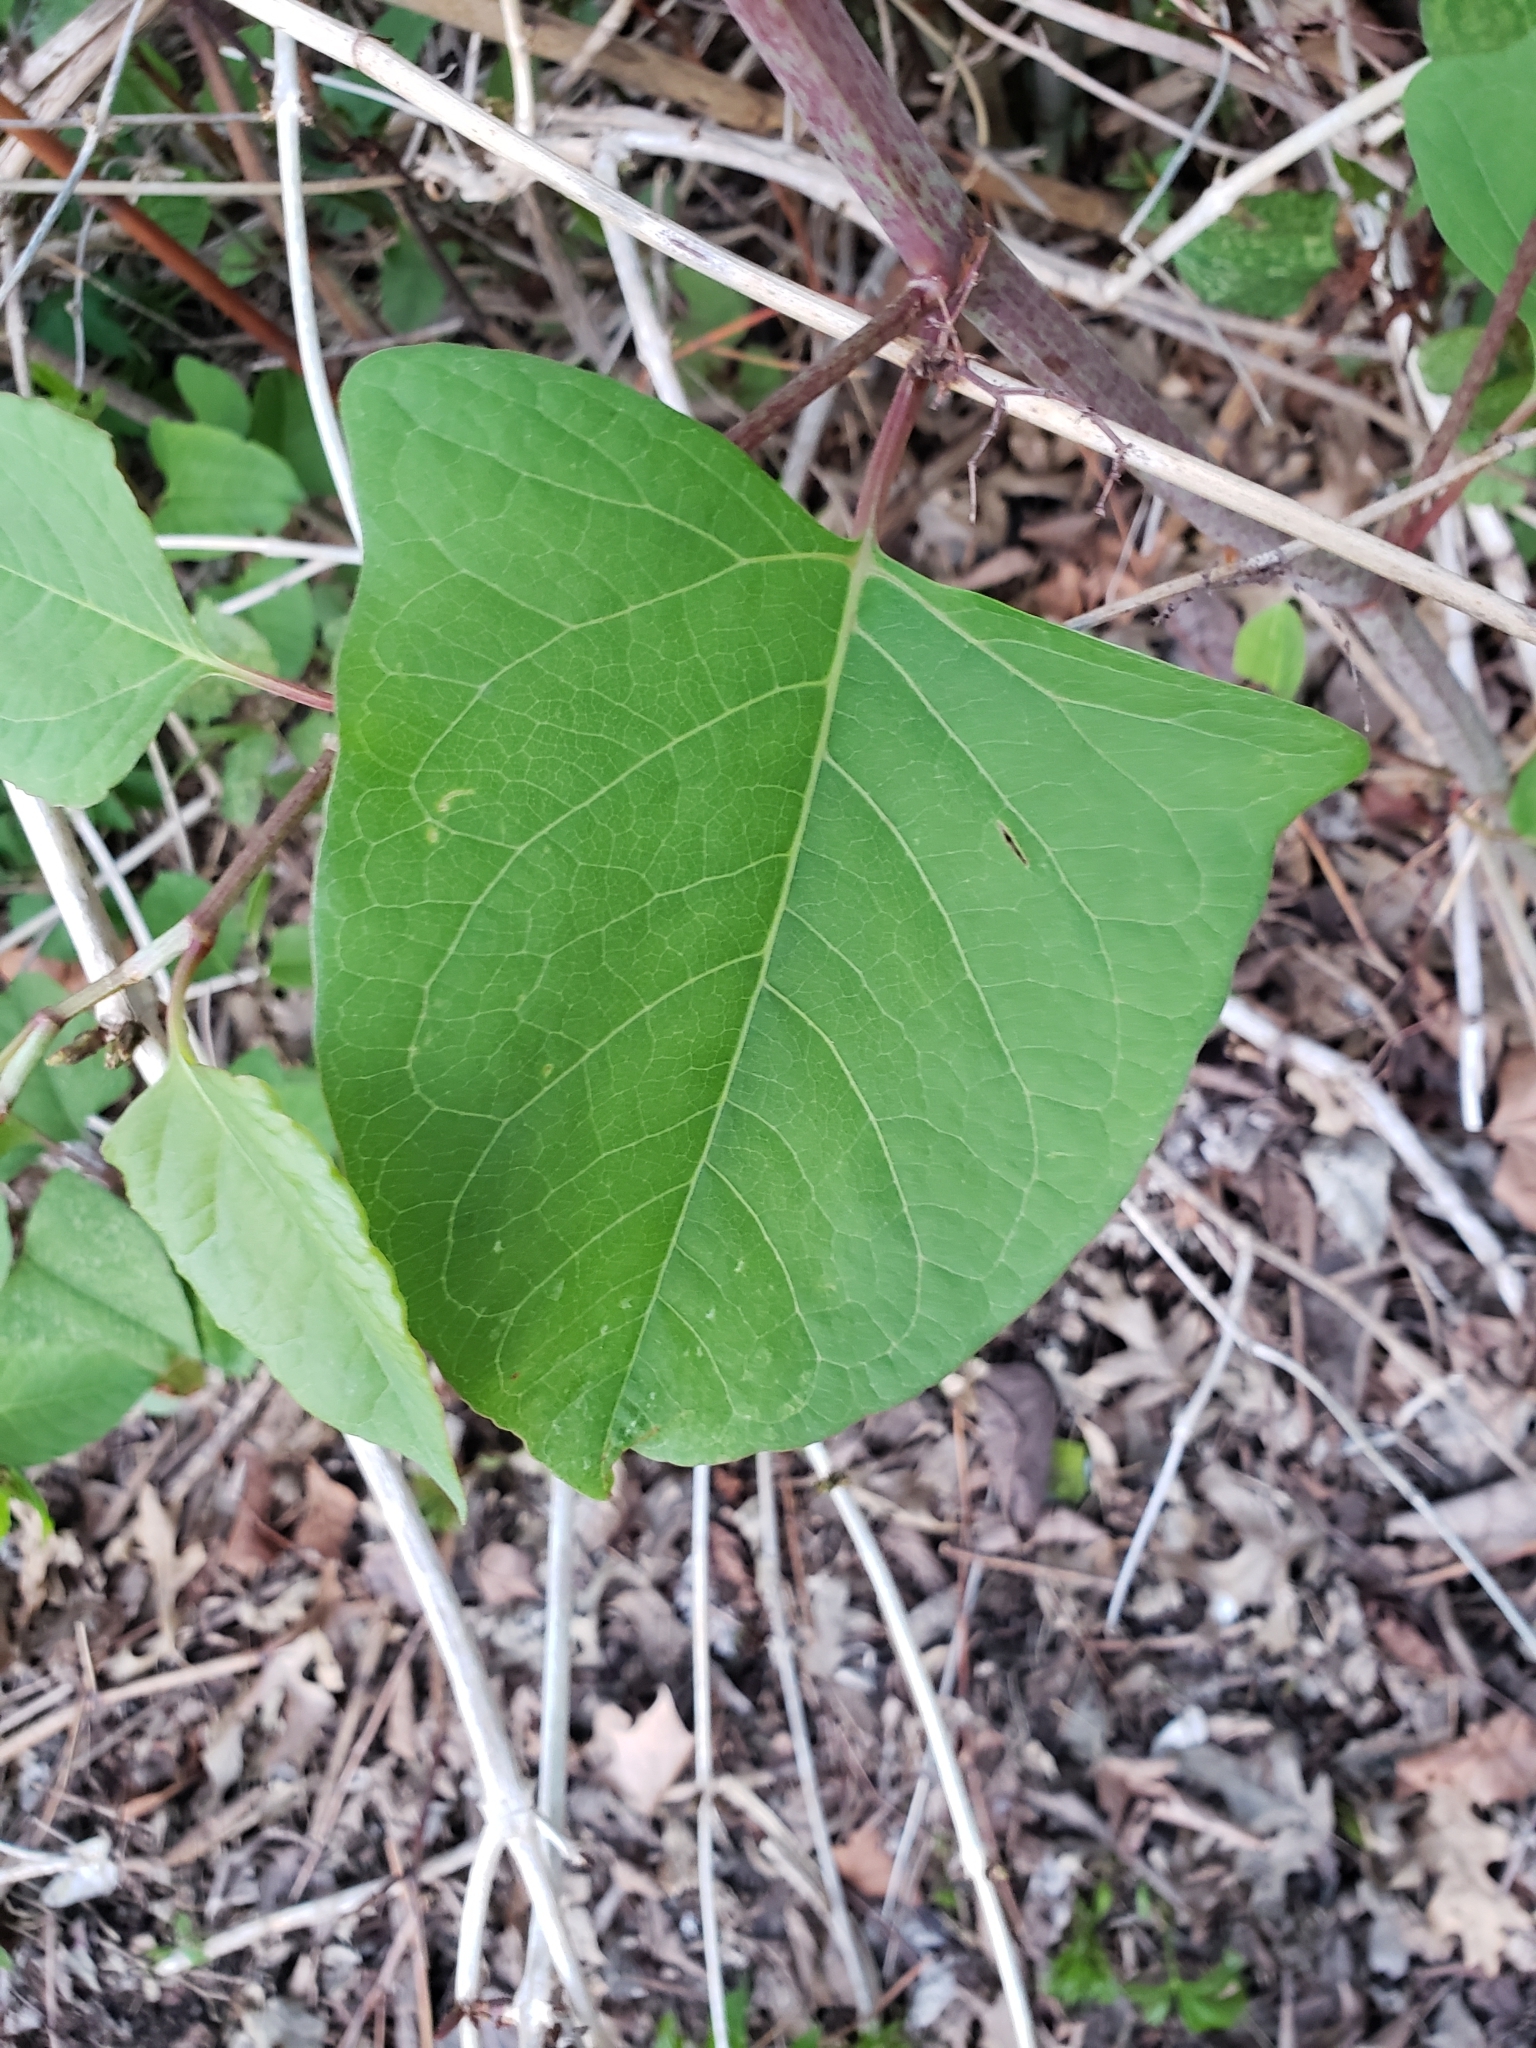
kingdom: Plantae
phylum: Tracheophyta
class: Magnoliopsida
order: Caryophyllales
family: Polygonaceae
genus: Reynoutria
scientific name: Reynoutria japonica
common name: Japanese knotweed
